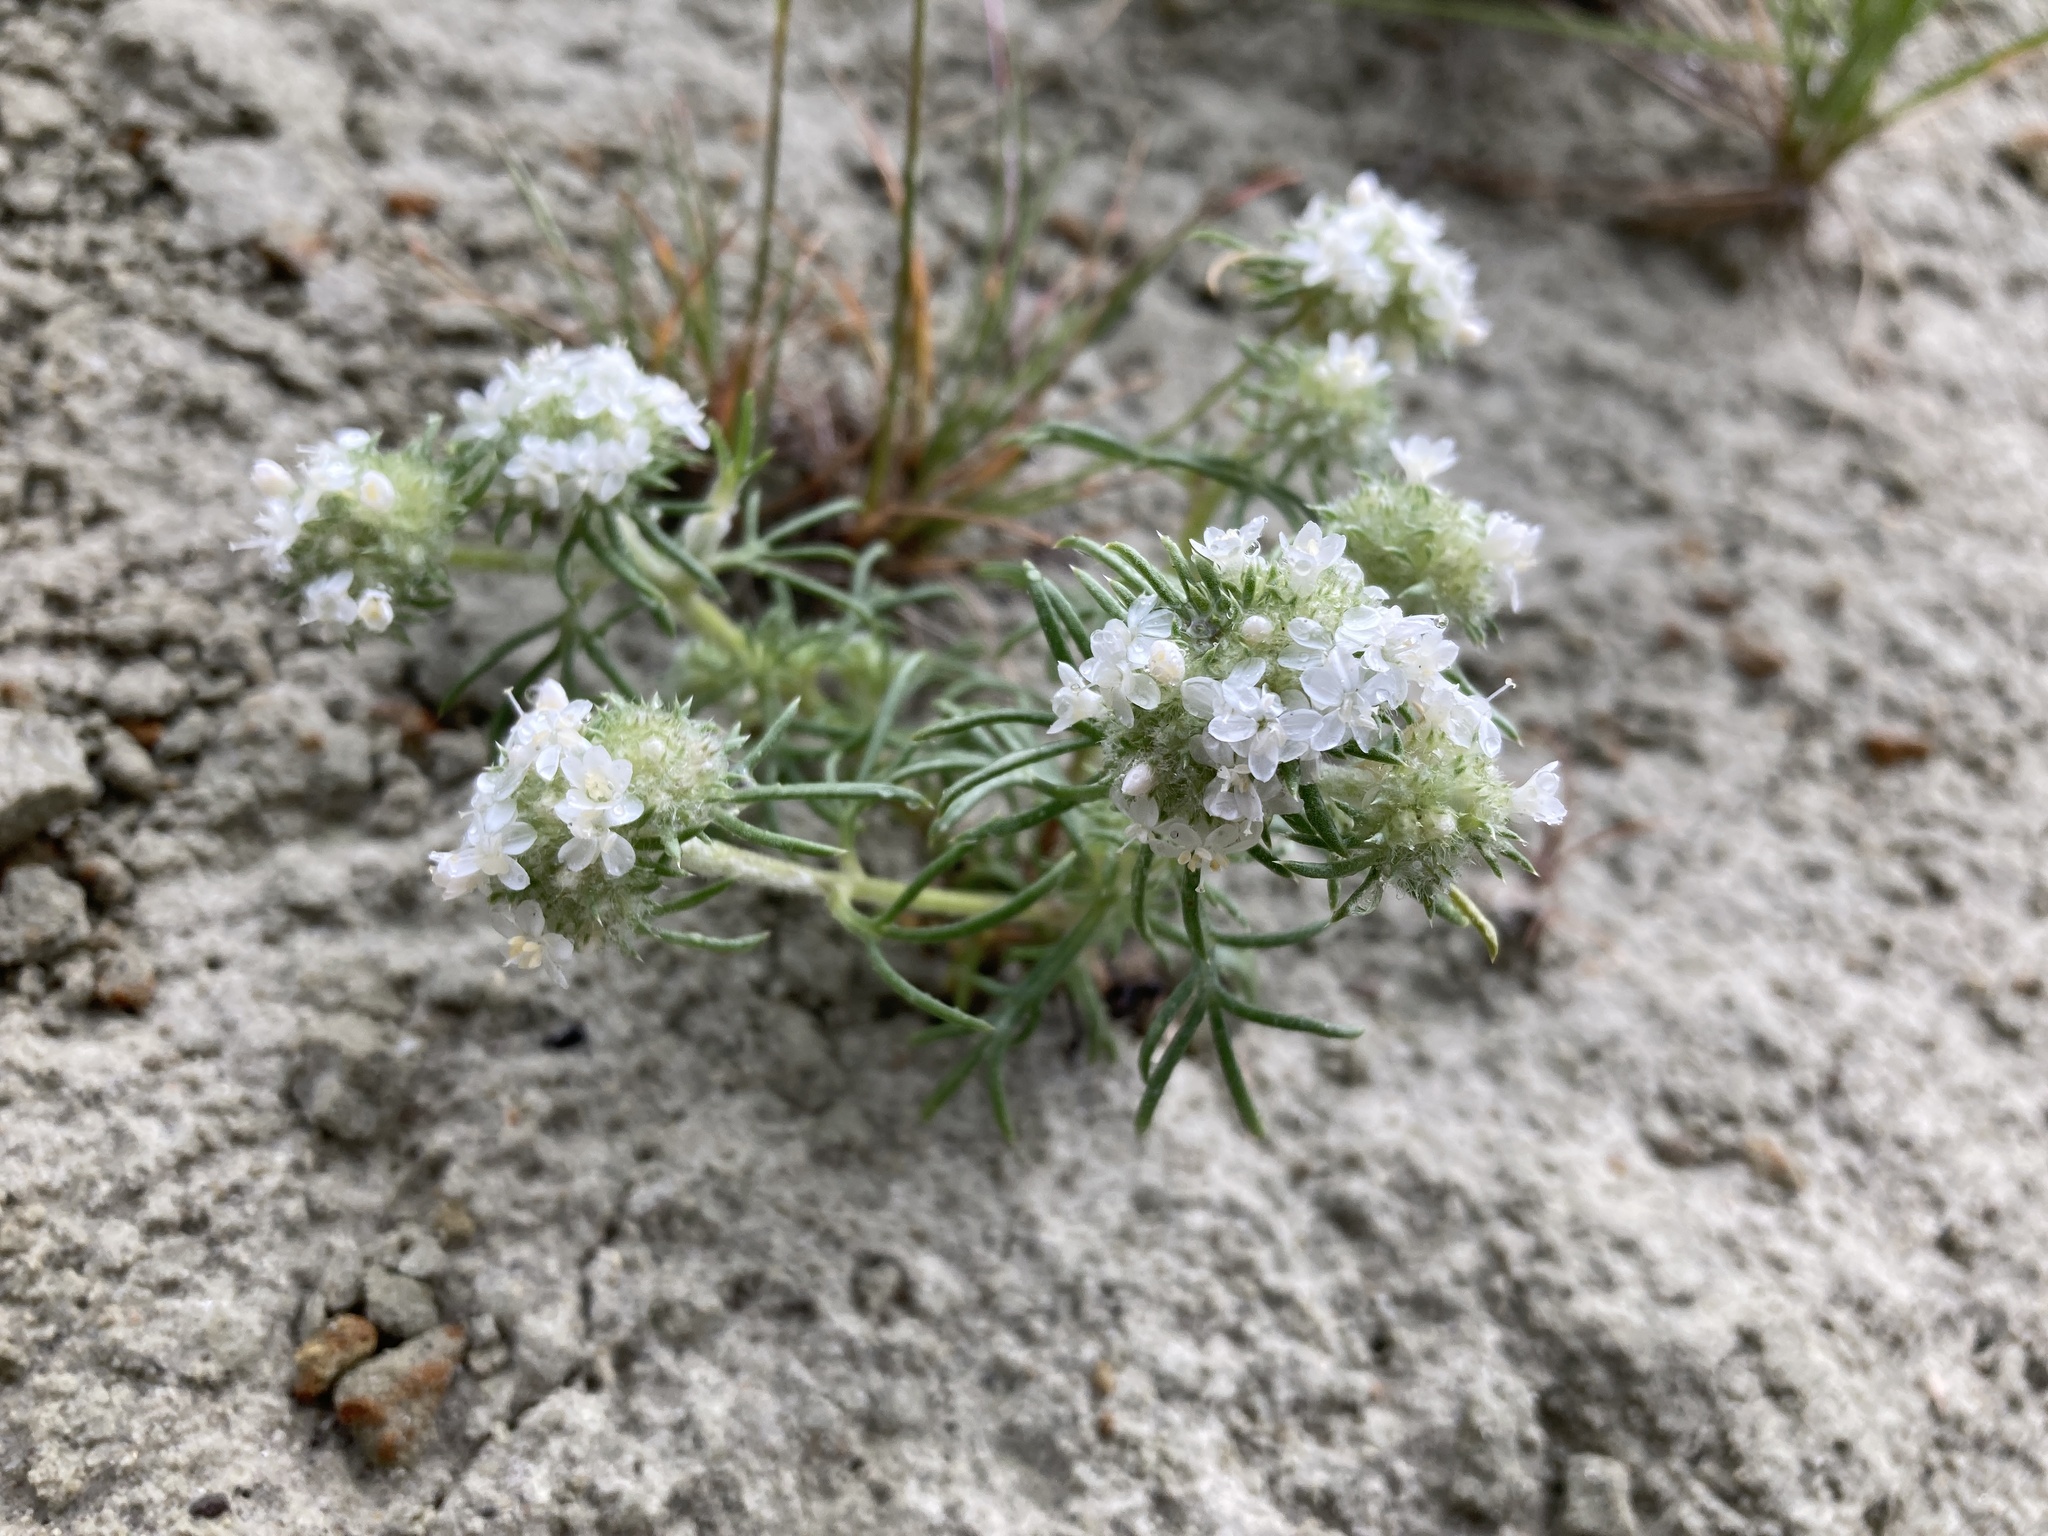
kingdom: Plantae
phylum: Tracheophyta
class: Magnoliopsida
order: Ericales
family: Polemoniaceae
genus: Ipomopsis
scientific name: Ipomopsis congesta
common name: Ball-head gilia
